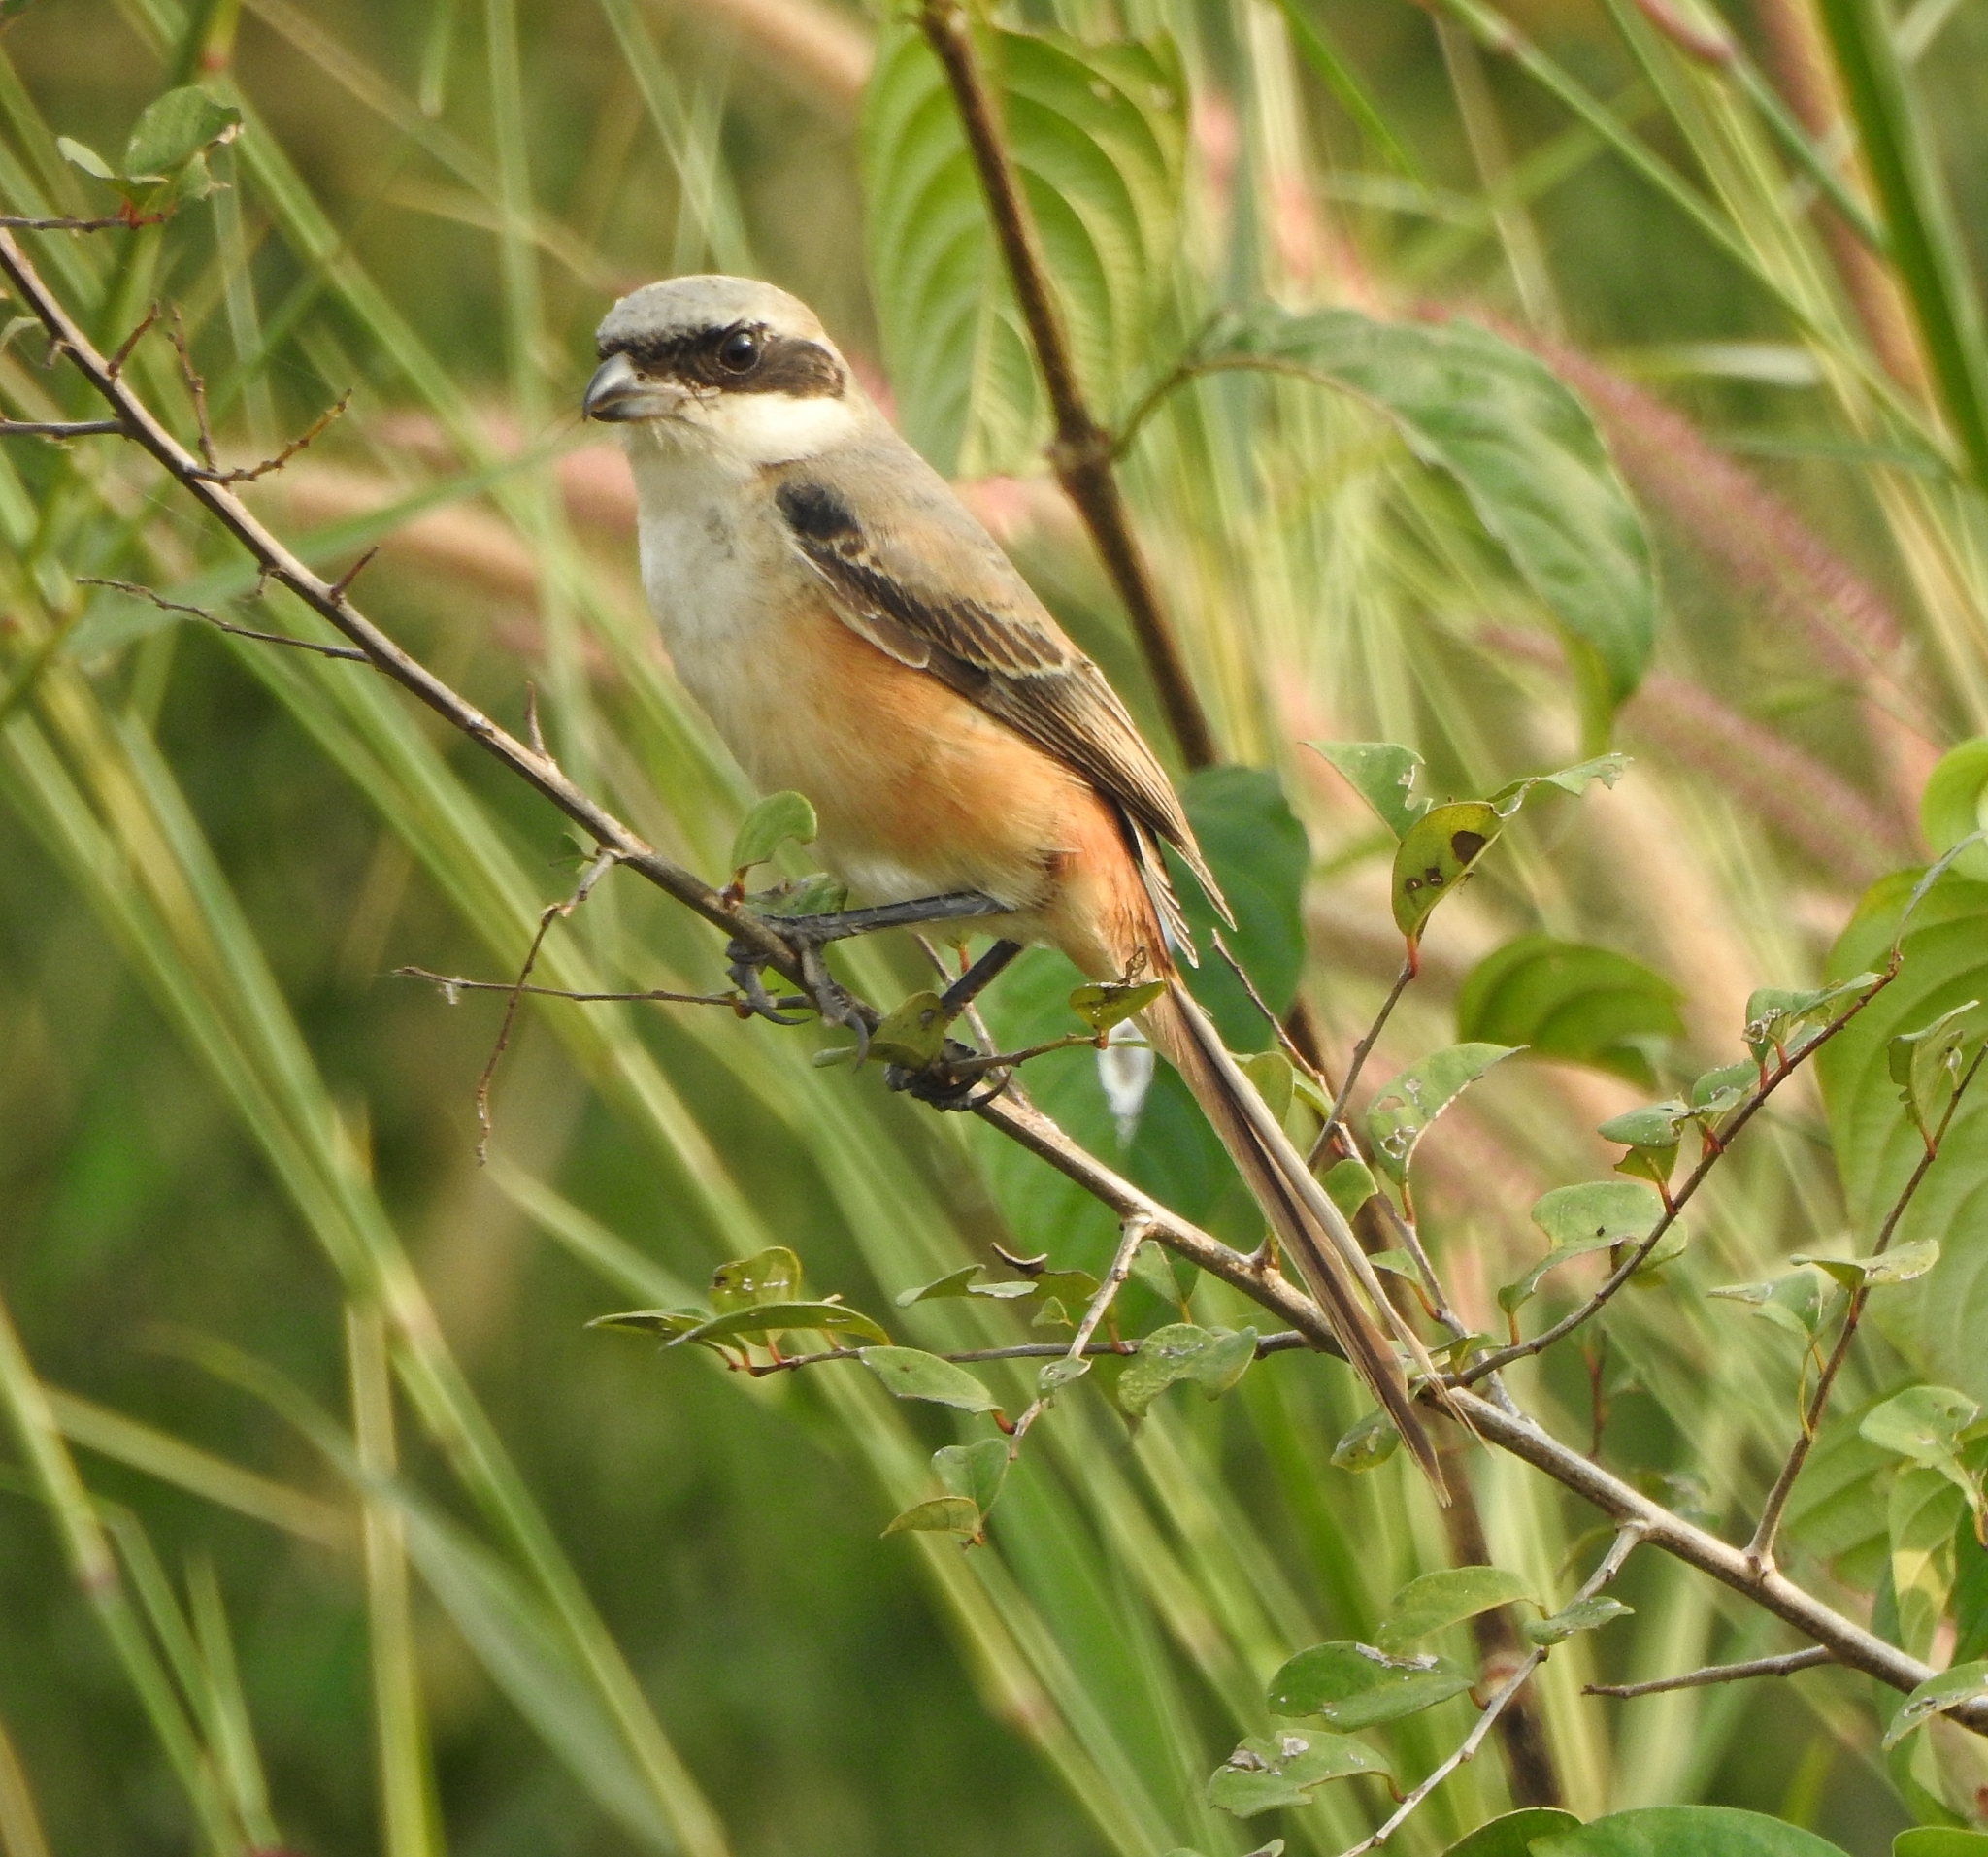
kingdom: Animalia
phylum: Chordata
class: Aves
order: Passeriformes
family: Laniidae
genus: Lanius
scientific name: Lanius schach
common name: Long-tailed shrike
